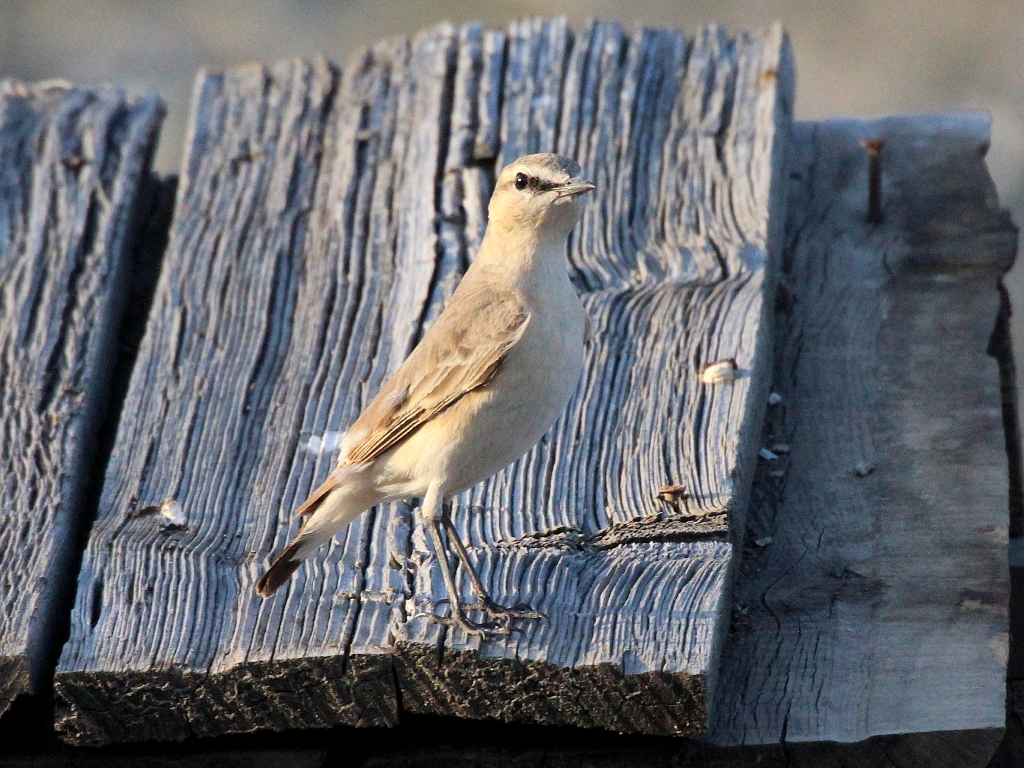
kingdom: Animalia
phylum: Chordata
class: Aves
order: Passeriformes
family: Muscicapidae
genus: Oenanthe
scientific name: Oenanthe isabellina
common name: Isabelline wheatear
